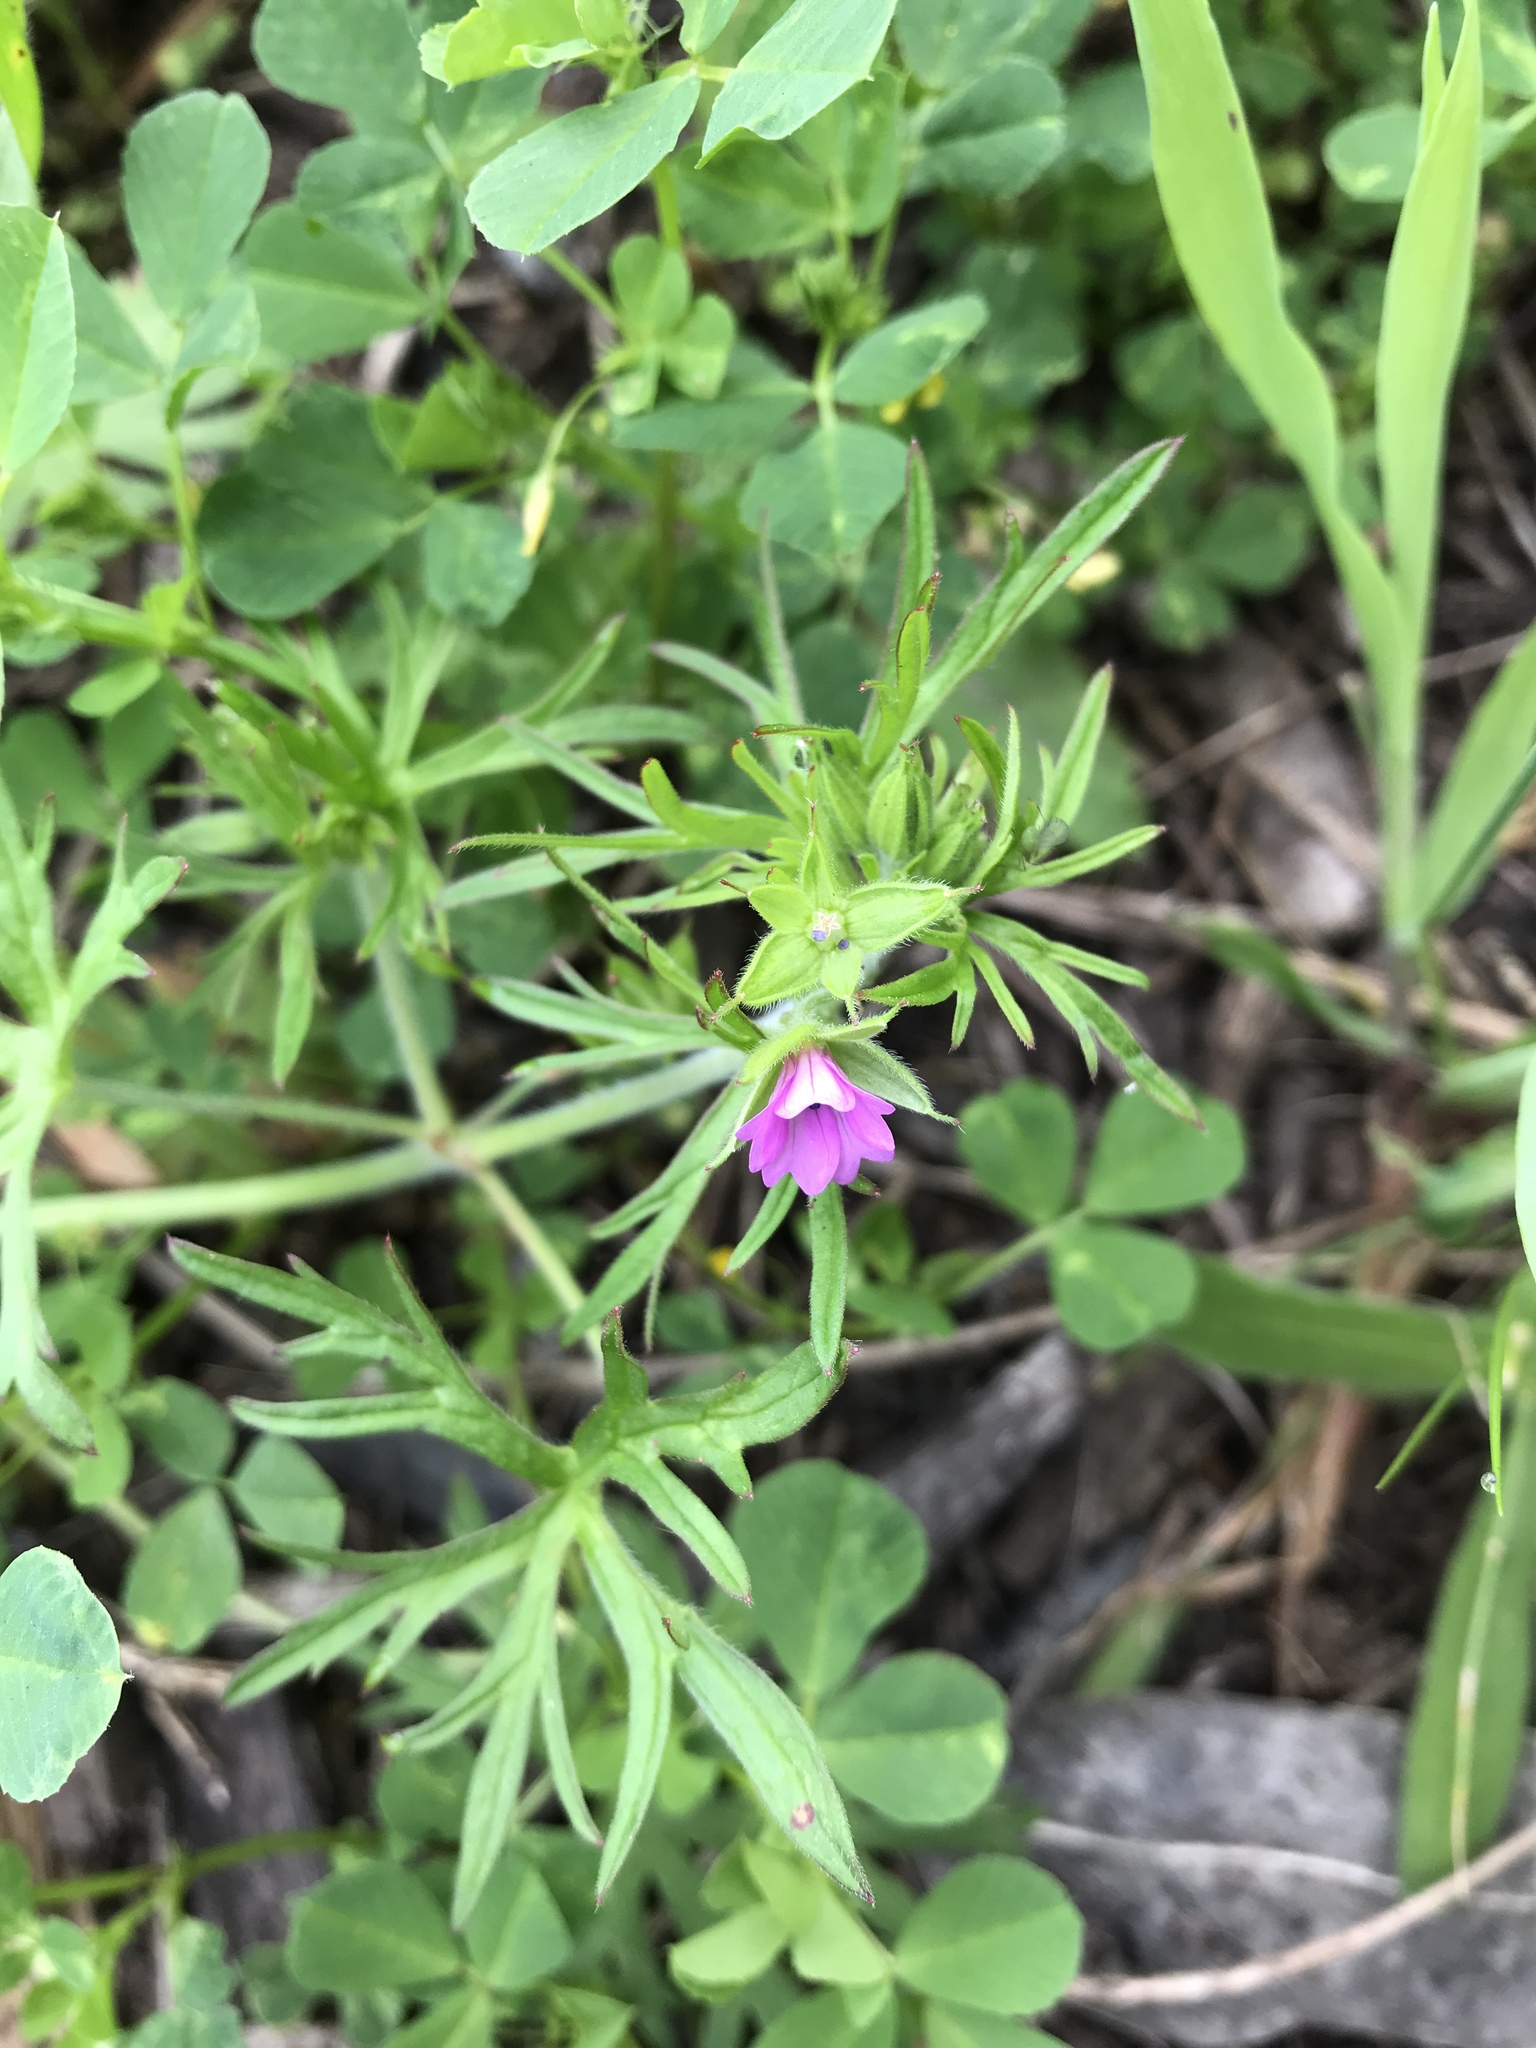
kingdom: Plantae
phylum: Tracheophyta
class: Magnoliopsida
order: Geraniales
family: Geraniaceae
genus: Geranium
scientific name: Geranium dissectum
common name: Cut-leaved crane's-bill
